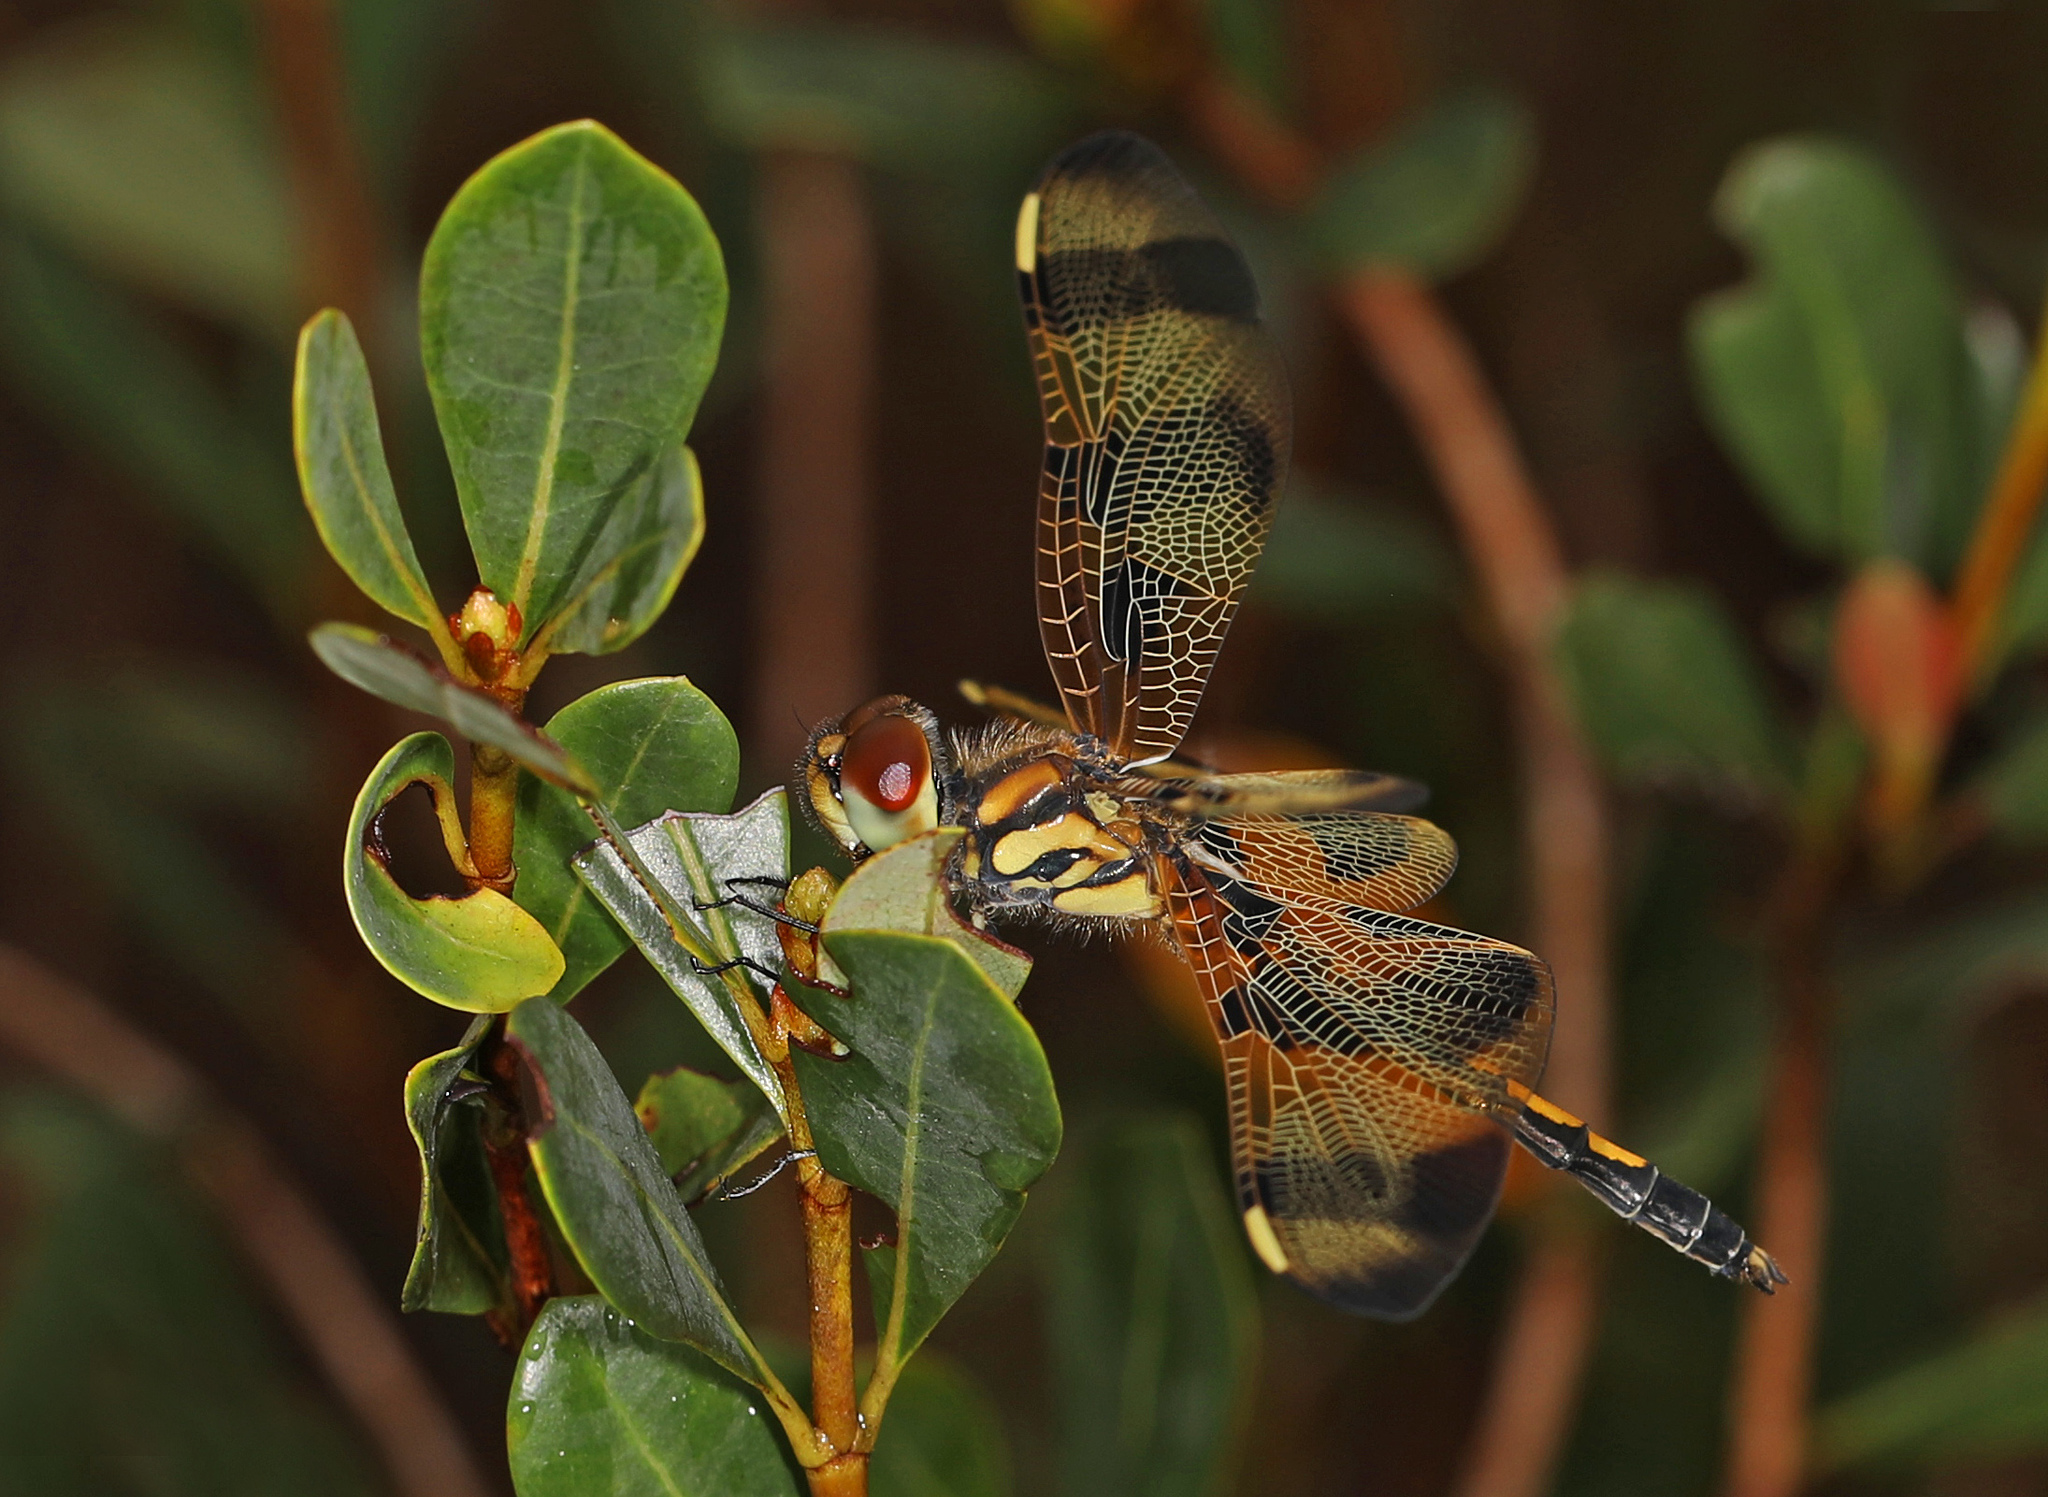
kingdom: Animalia
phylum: Arthropoda
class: Insecta
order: Odonata
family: Libellulidae
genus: Celithemis
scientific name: Celithemis eponina
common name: Halloween pennant
